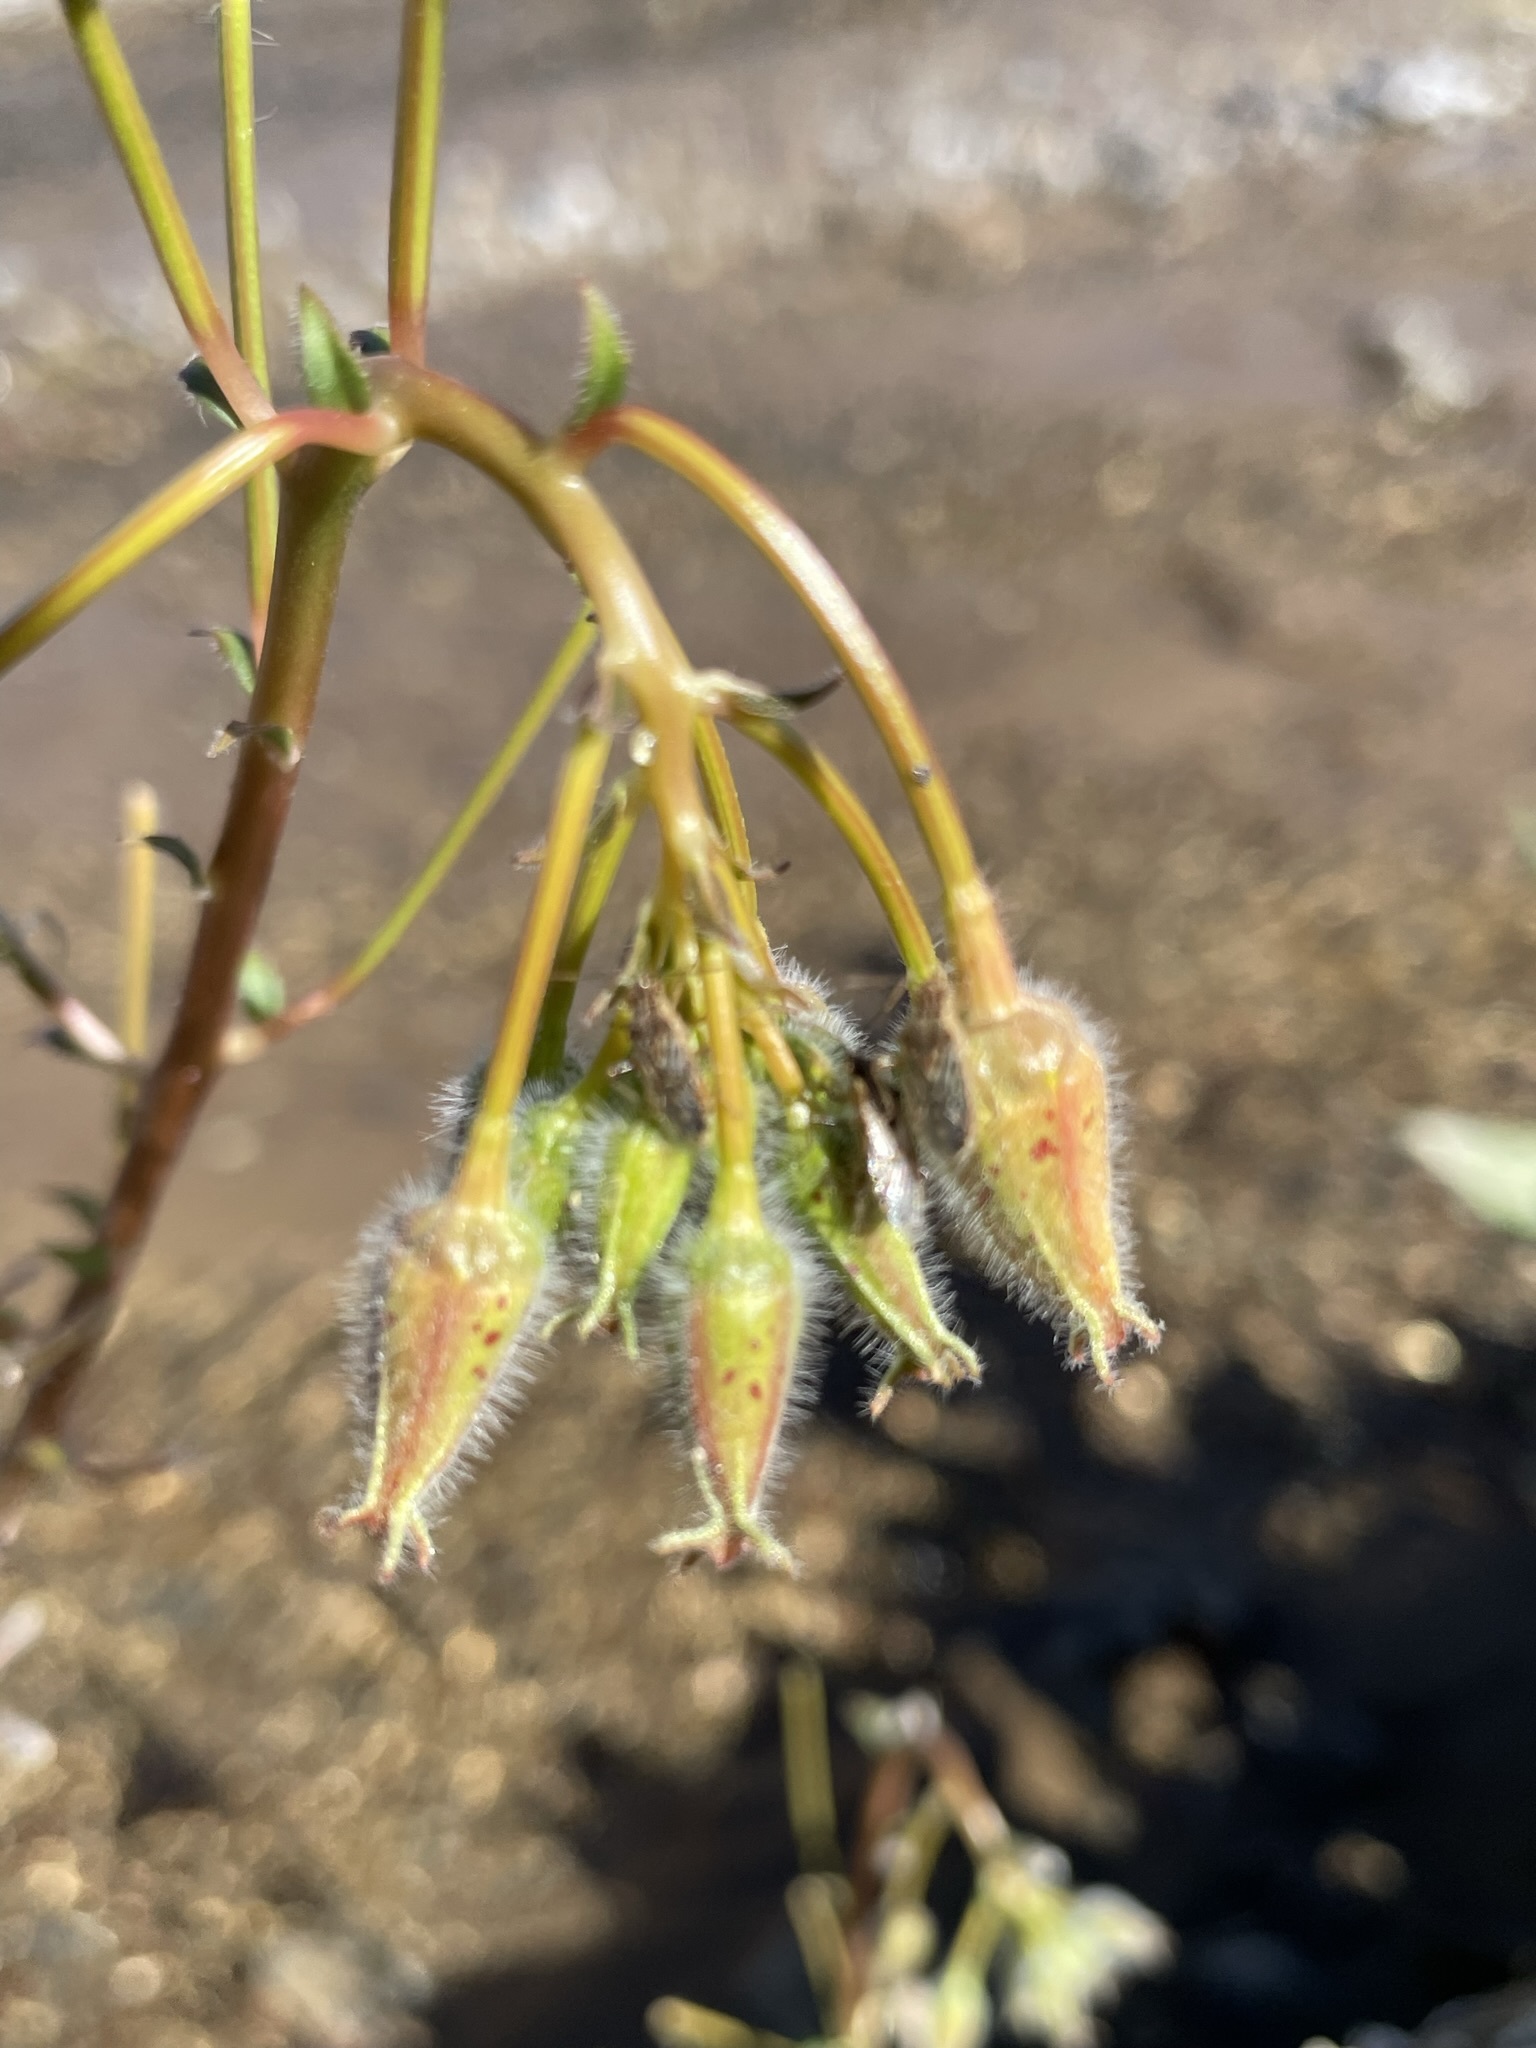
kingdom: Plantae
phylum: Tracheophyta
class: Magnoliopsida
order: Myrtales
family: Onagraceae
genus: Chylismia
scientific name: Chylismia brevipes
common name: Yellow cups
